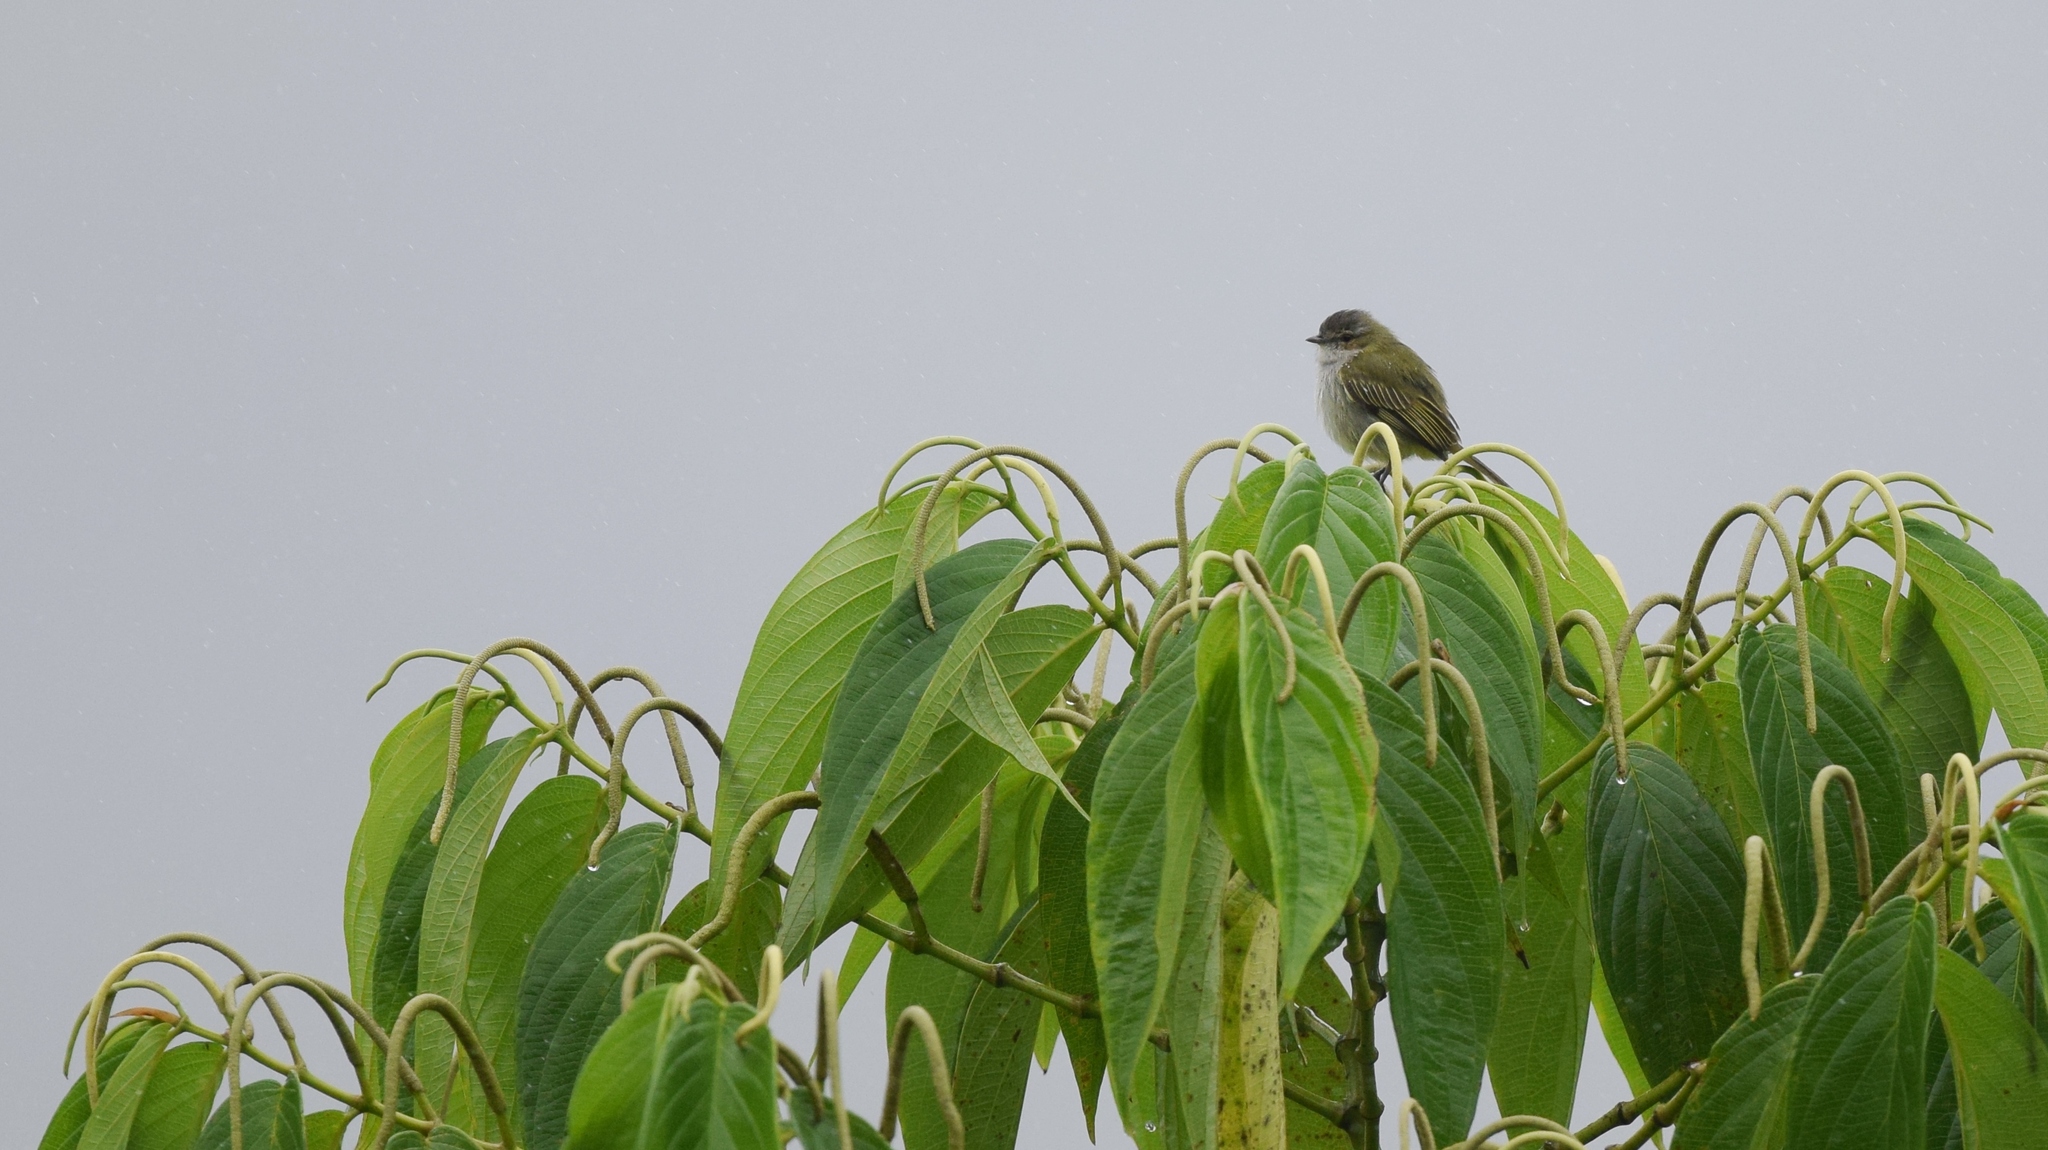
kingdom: Animalia
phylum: Chordata
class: Aves
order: Passeriformes
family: Tyrannidae
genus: Zimmerius
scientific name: Zimmerius vilissimus
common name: Paltry tyrannulet
